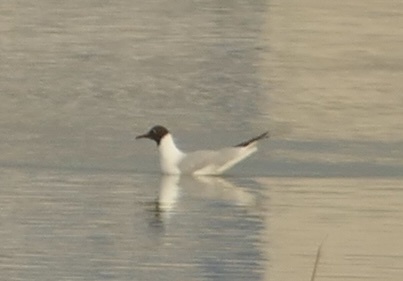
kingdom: Animalia
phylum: Chordata
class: Aves
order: Charadriiformes
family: Laridae
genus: Chroicocephalus
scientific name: Chroicocephalus ridibundus
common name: Black-headed gull
